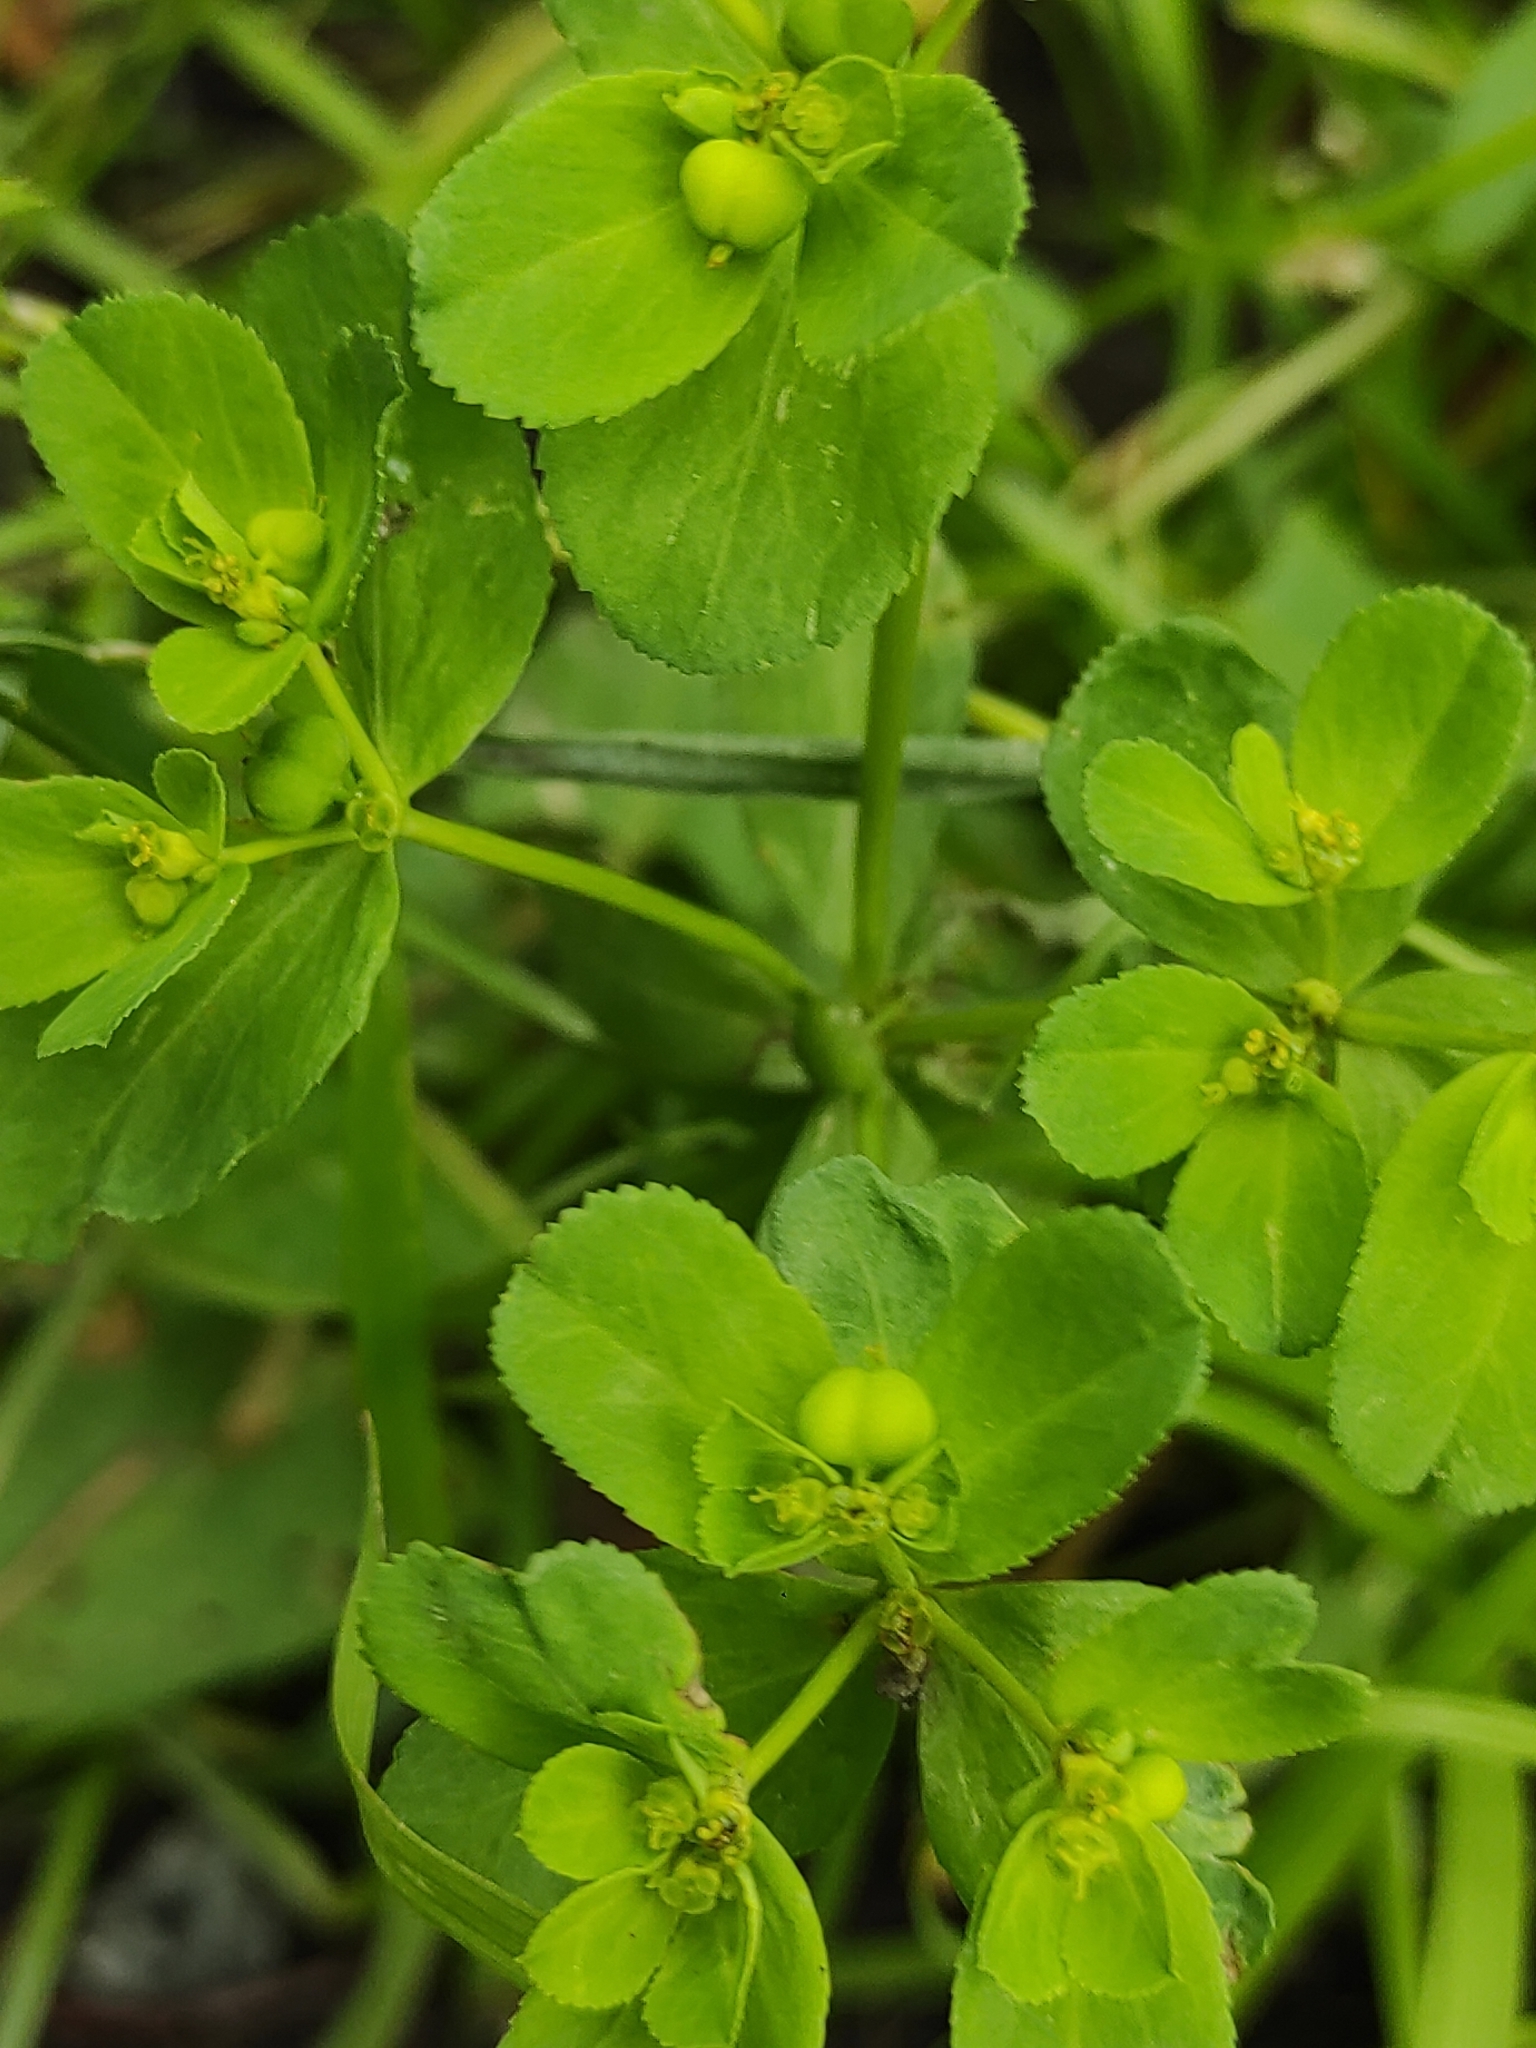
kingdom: Plantae
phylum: Tracheophyta
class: Magnoliopsida
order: Malpighiales
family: Euphorbiaceae
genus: Euphorbia
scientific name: Euphorbia helioscopia
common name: Sun spurge
